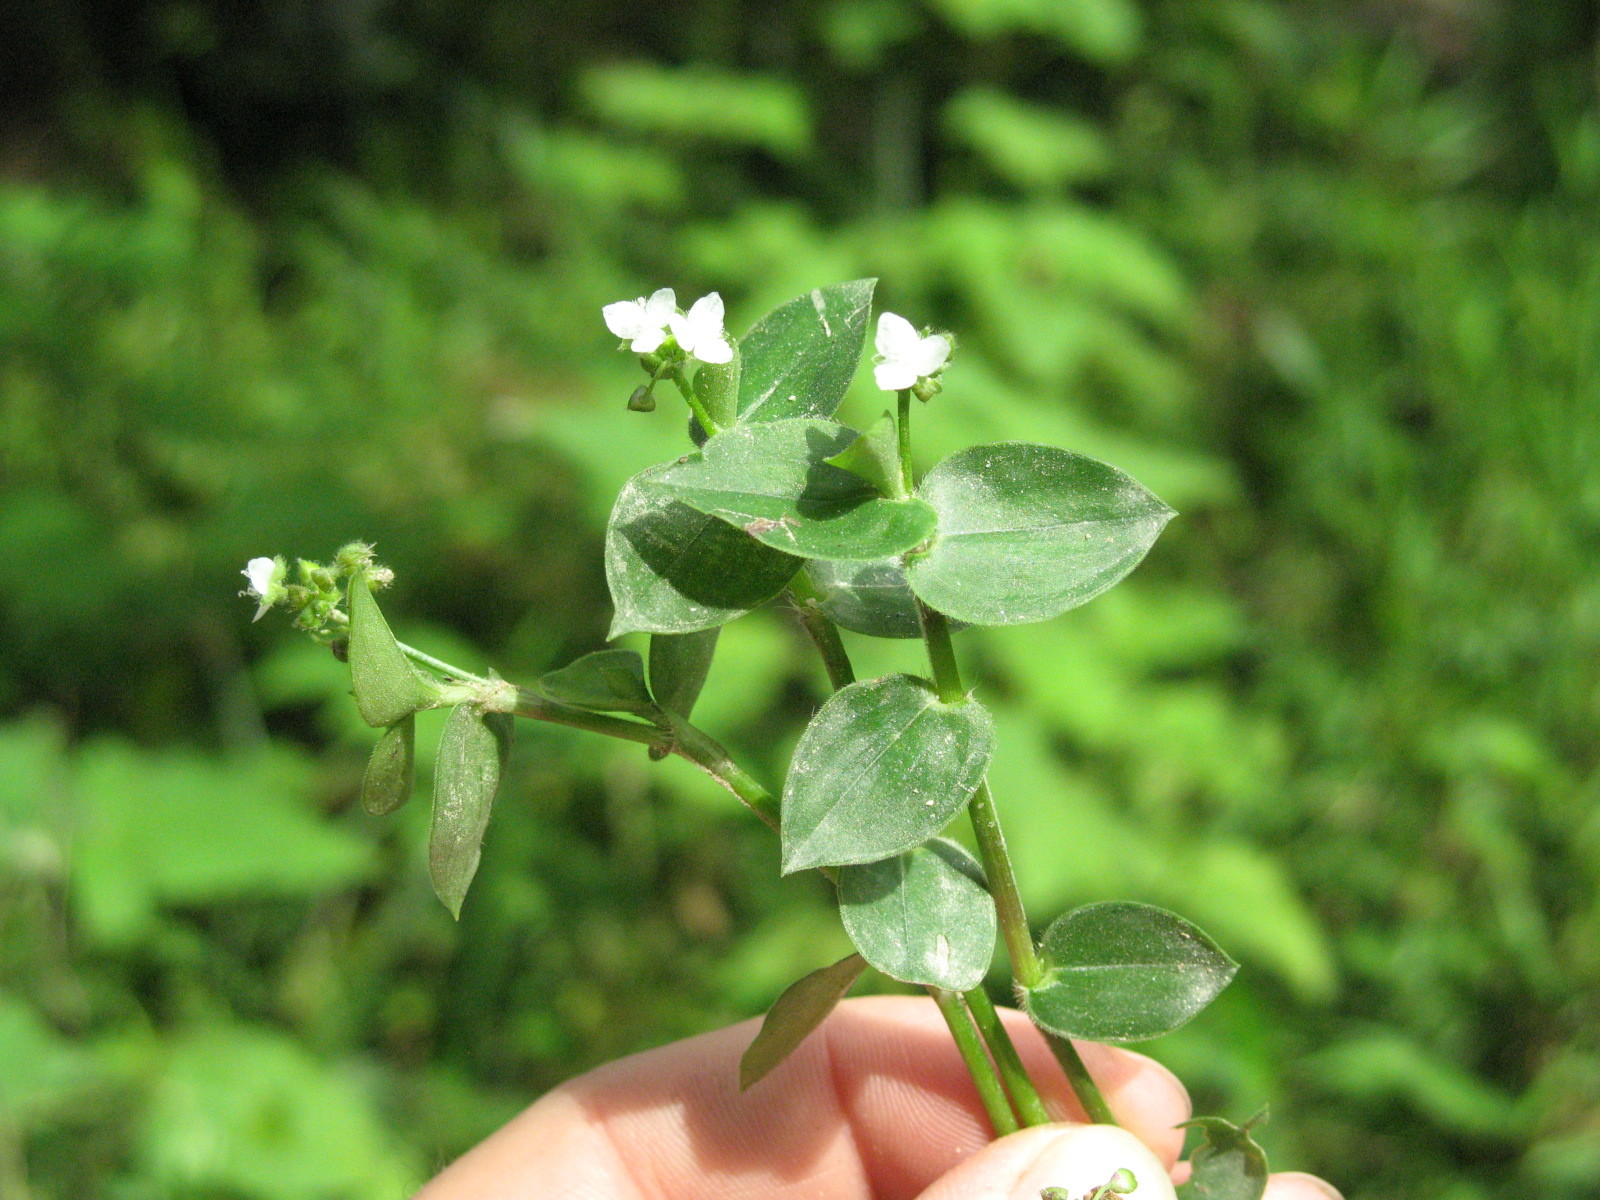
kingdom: Plantae
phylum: Tracheophyta
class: Liliopsida
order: Commelinales
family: Commelinaceae
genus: Callisia
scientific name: Callisia gracilis
